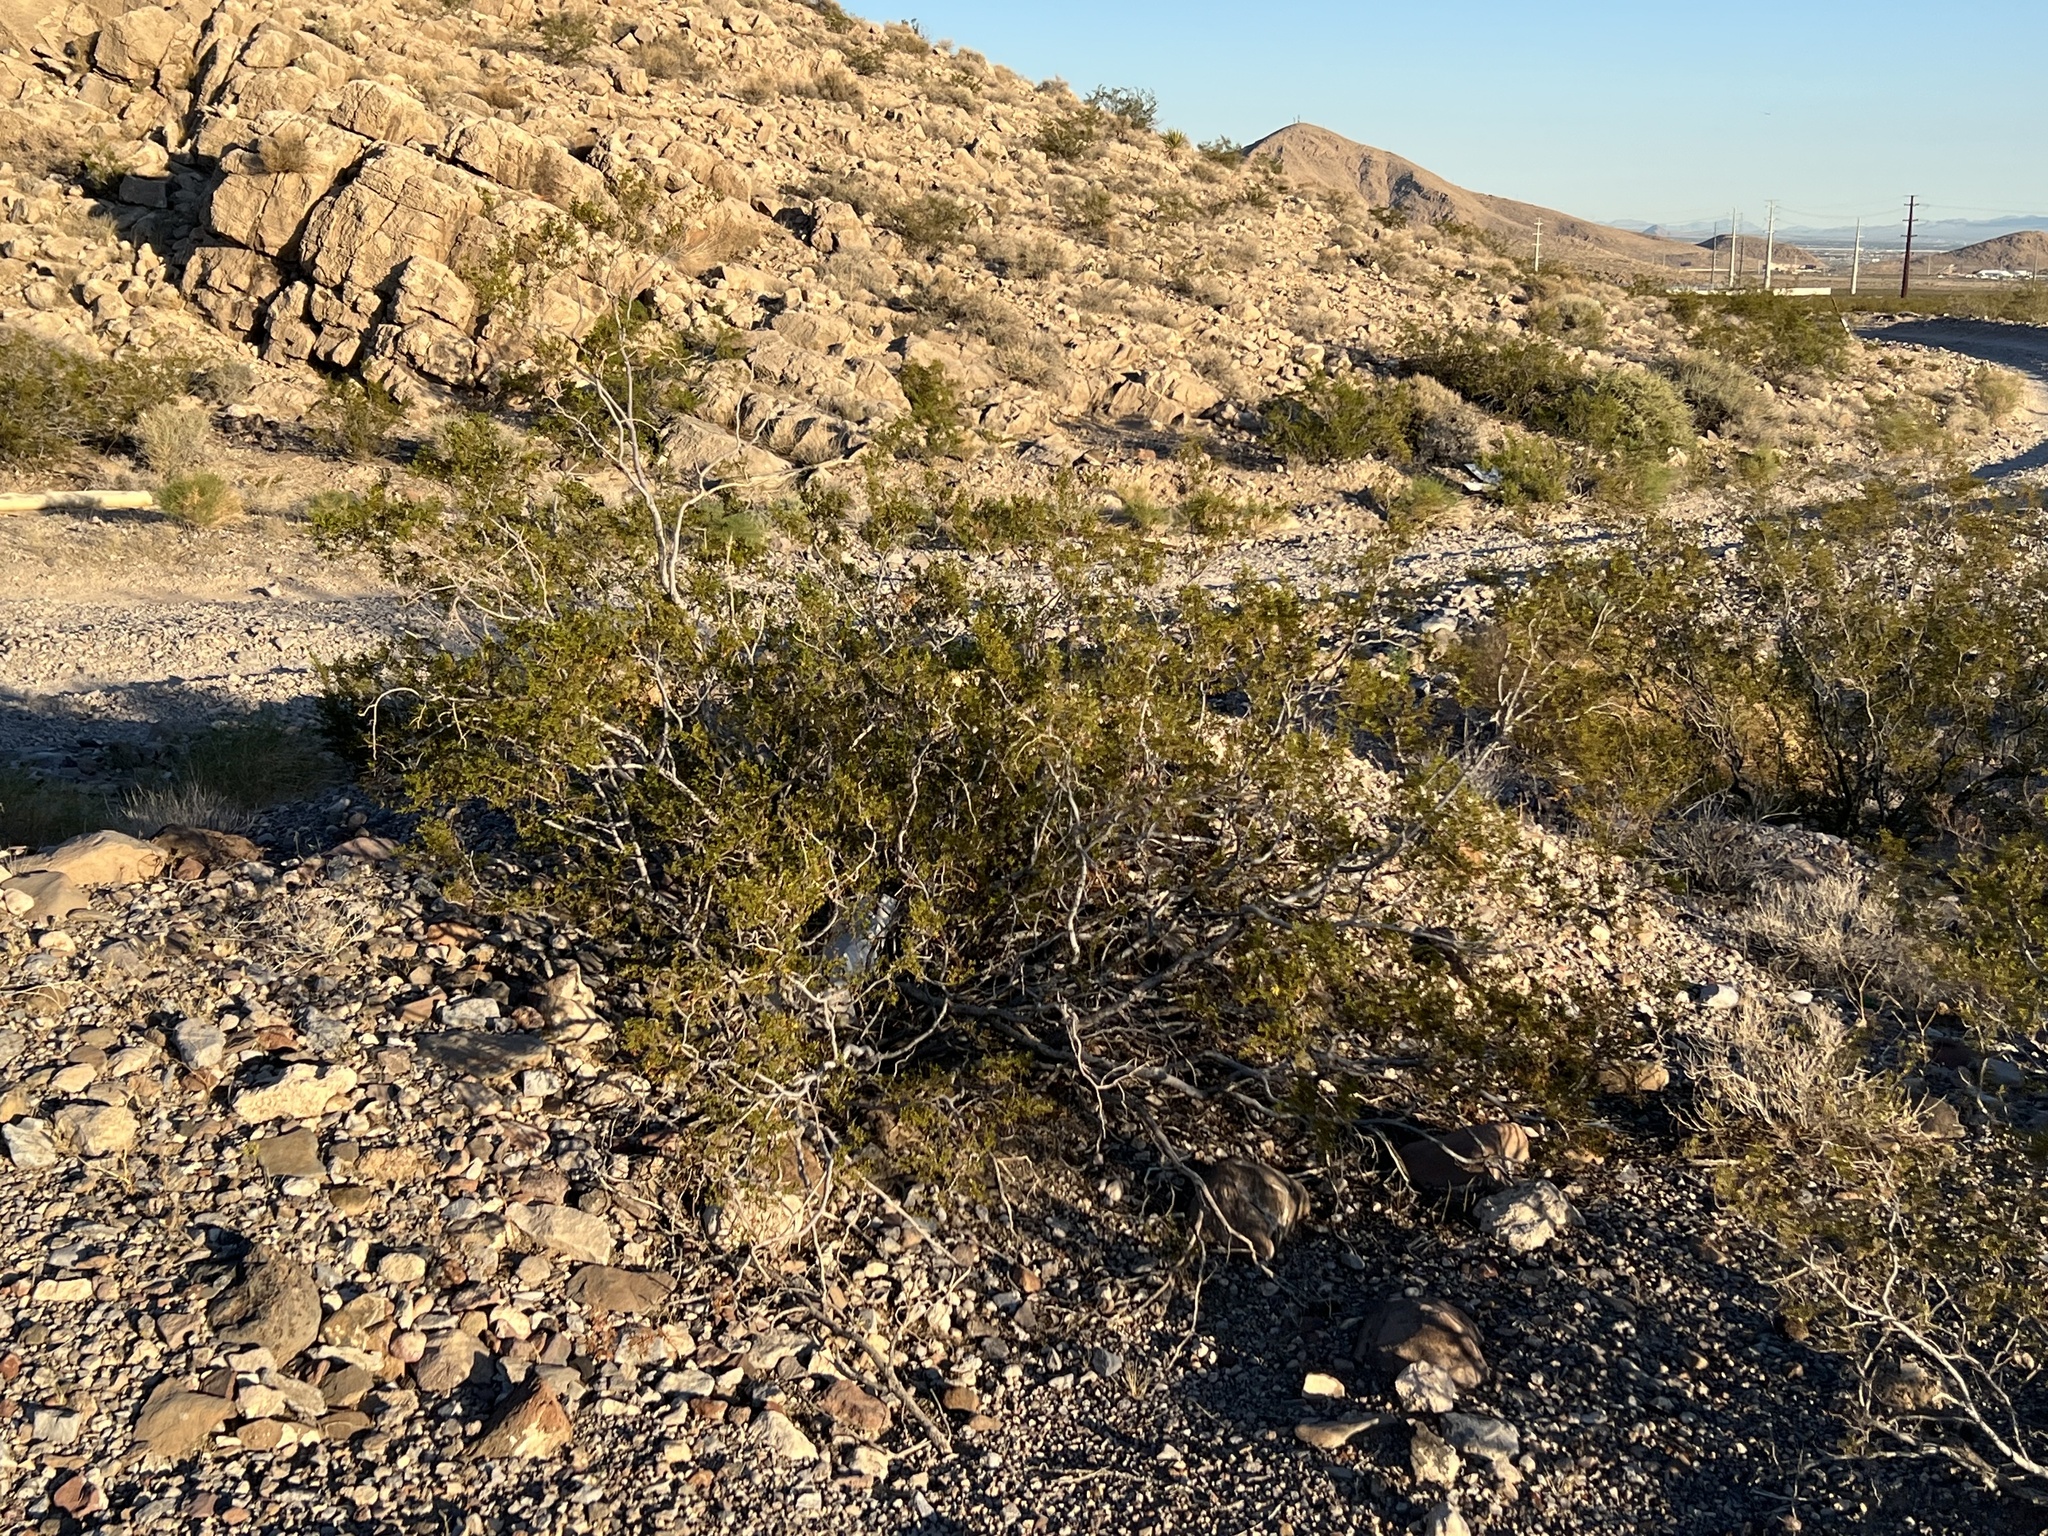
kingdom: Plantae
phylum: Tracheophyta
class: Magnoliopsida
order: Zygophyllales
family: Zygophyllaceae
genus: Larrea
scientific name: Larrea tridentata
